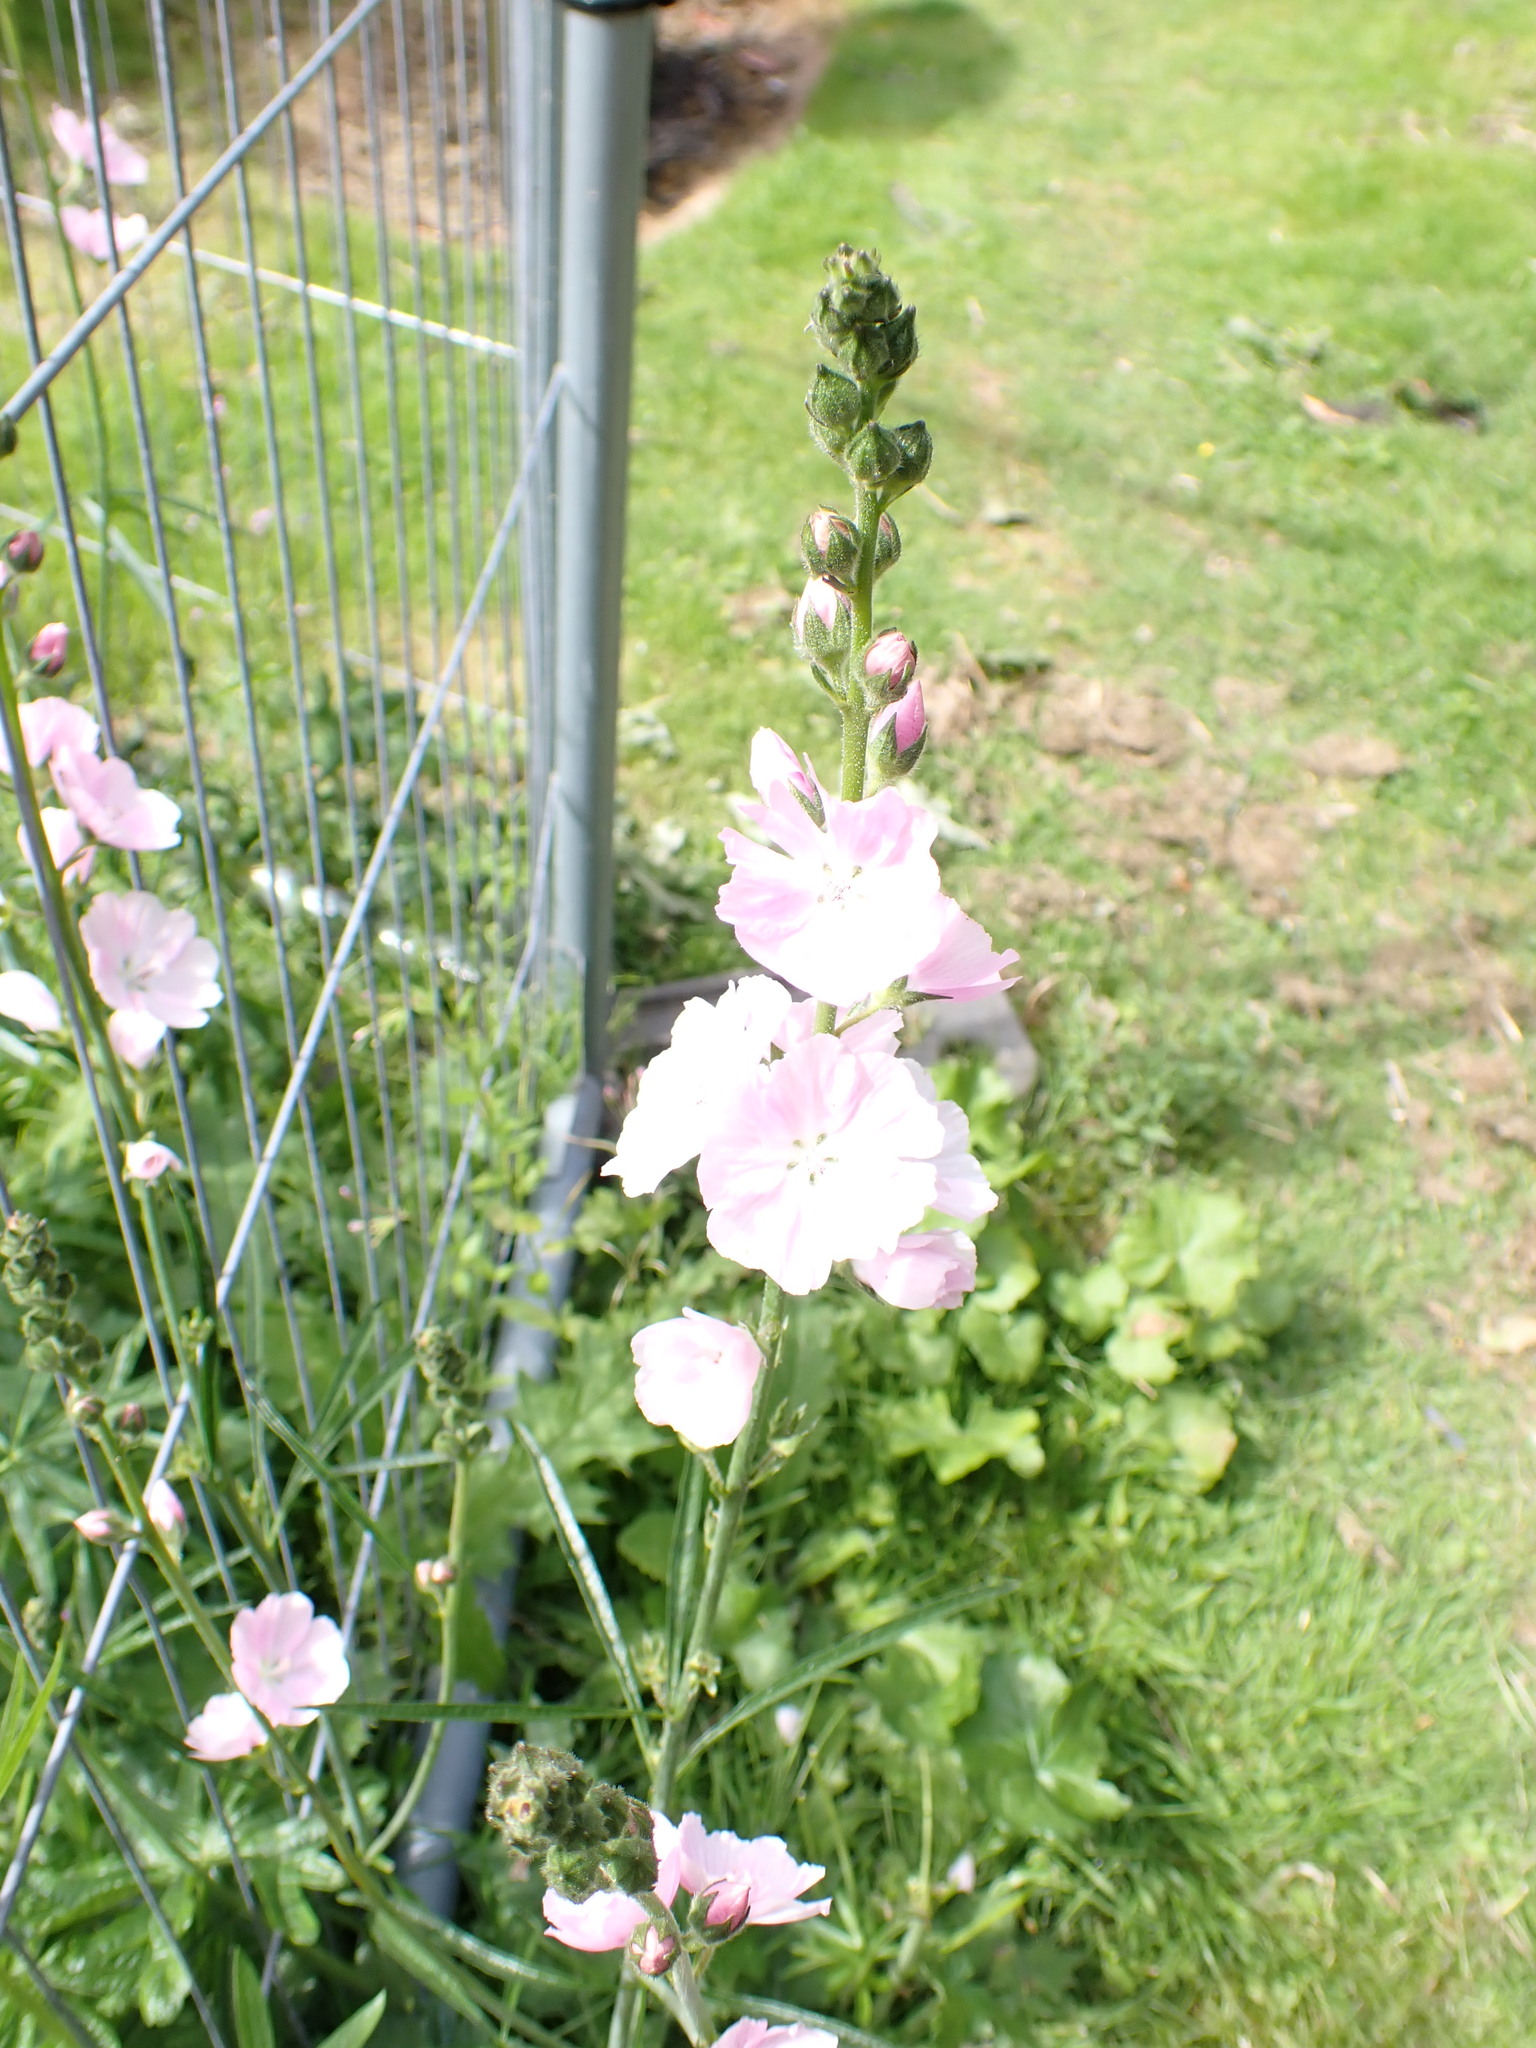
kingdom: Plantae
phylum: Tracheophyta
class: Magnoliopsida
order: Malvales
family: Malvaceae
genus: Alcea
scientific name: Alcea rosea
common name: Hollyhock
